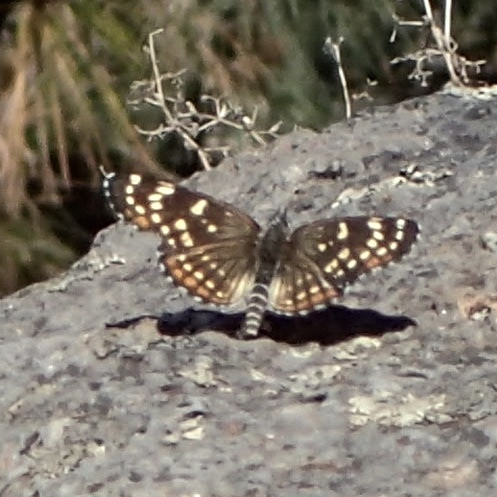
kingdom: Animalia
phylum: Arthropoda
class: Insecta
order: Lepidoptera
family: Nymphalidae
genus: Thessalia
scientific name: Thessalia leanira
